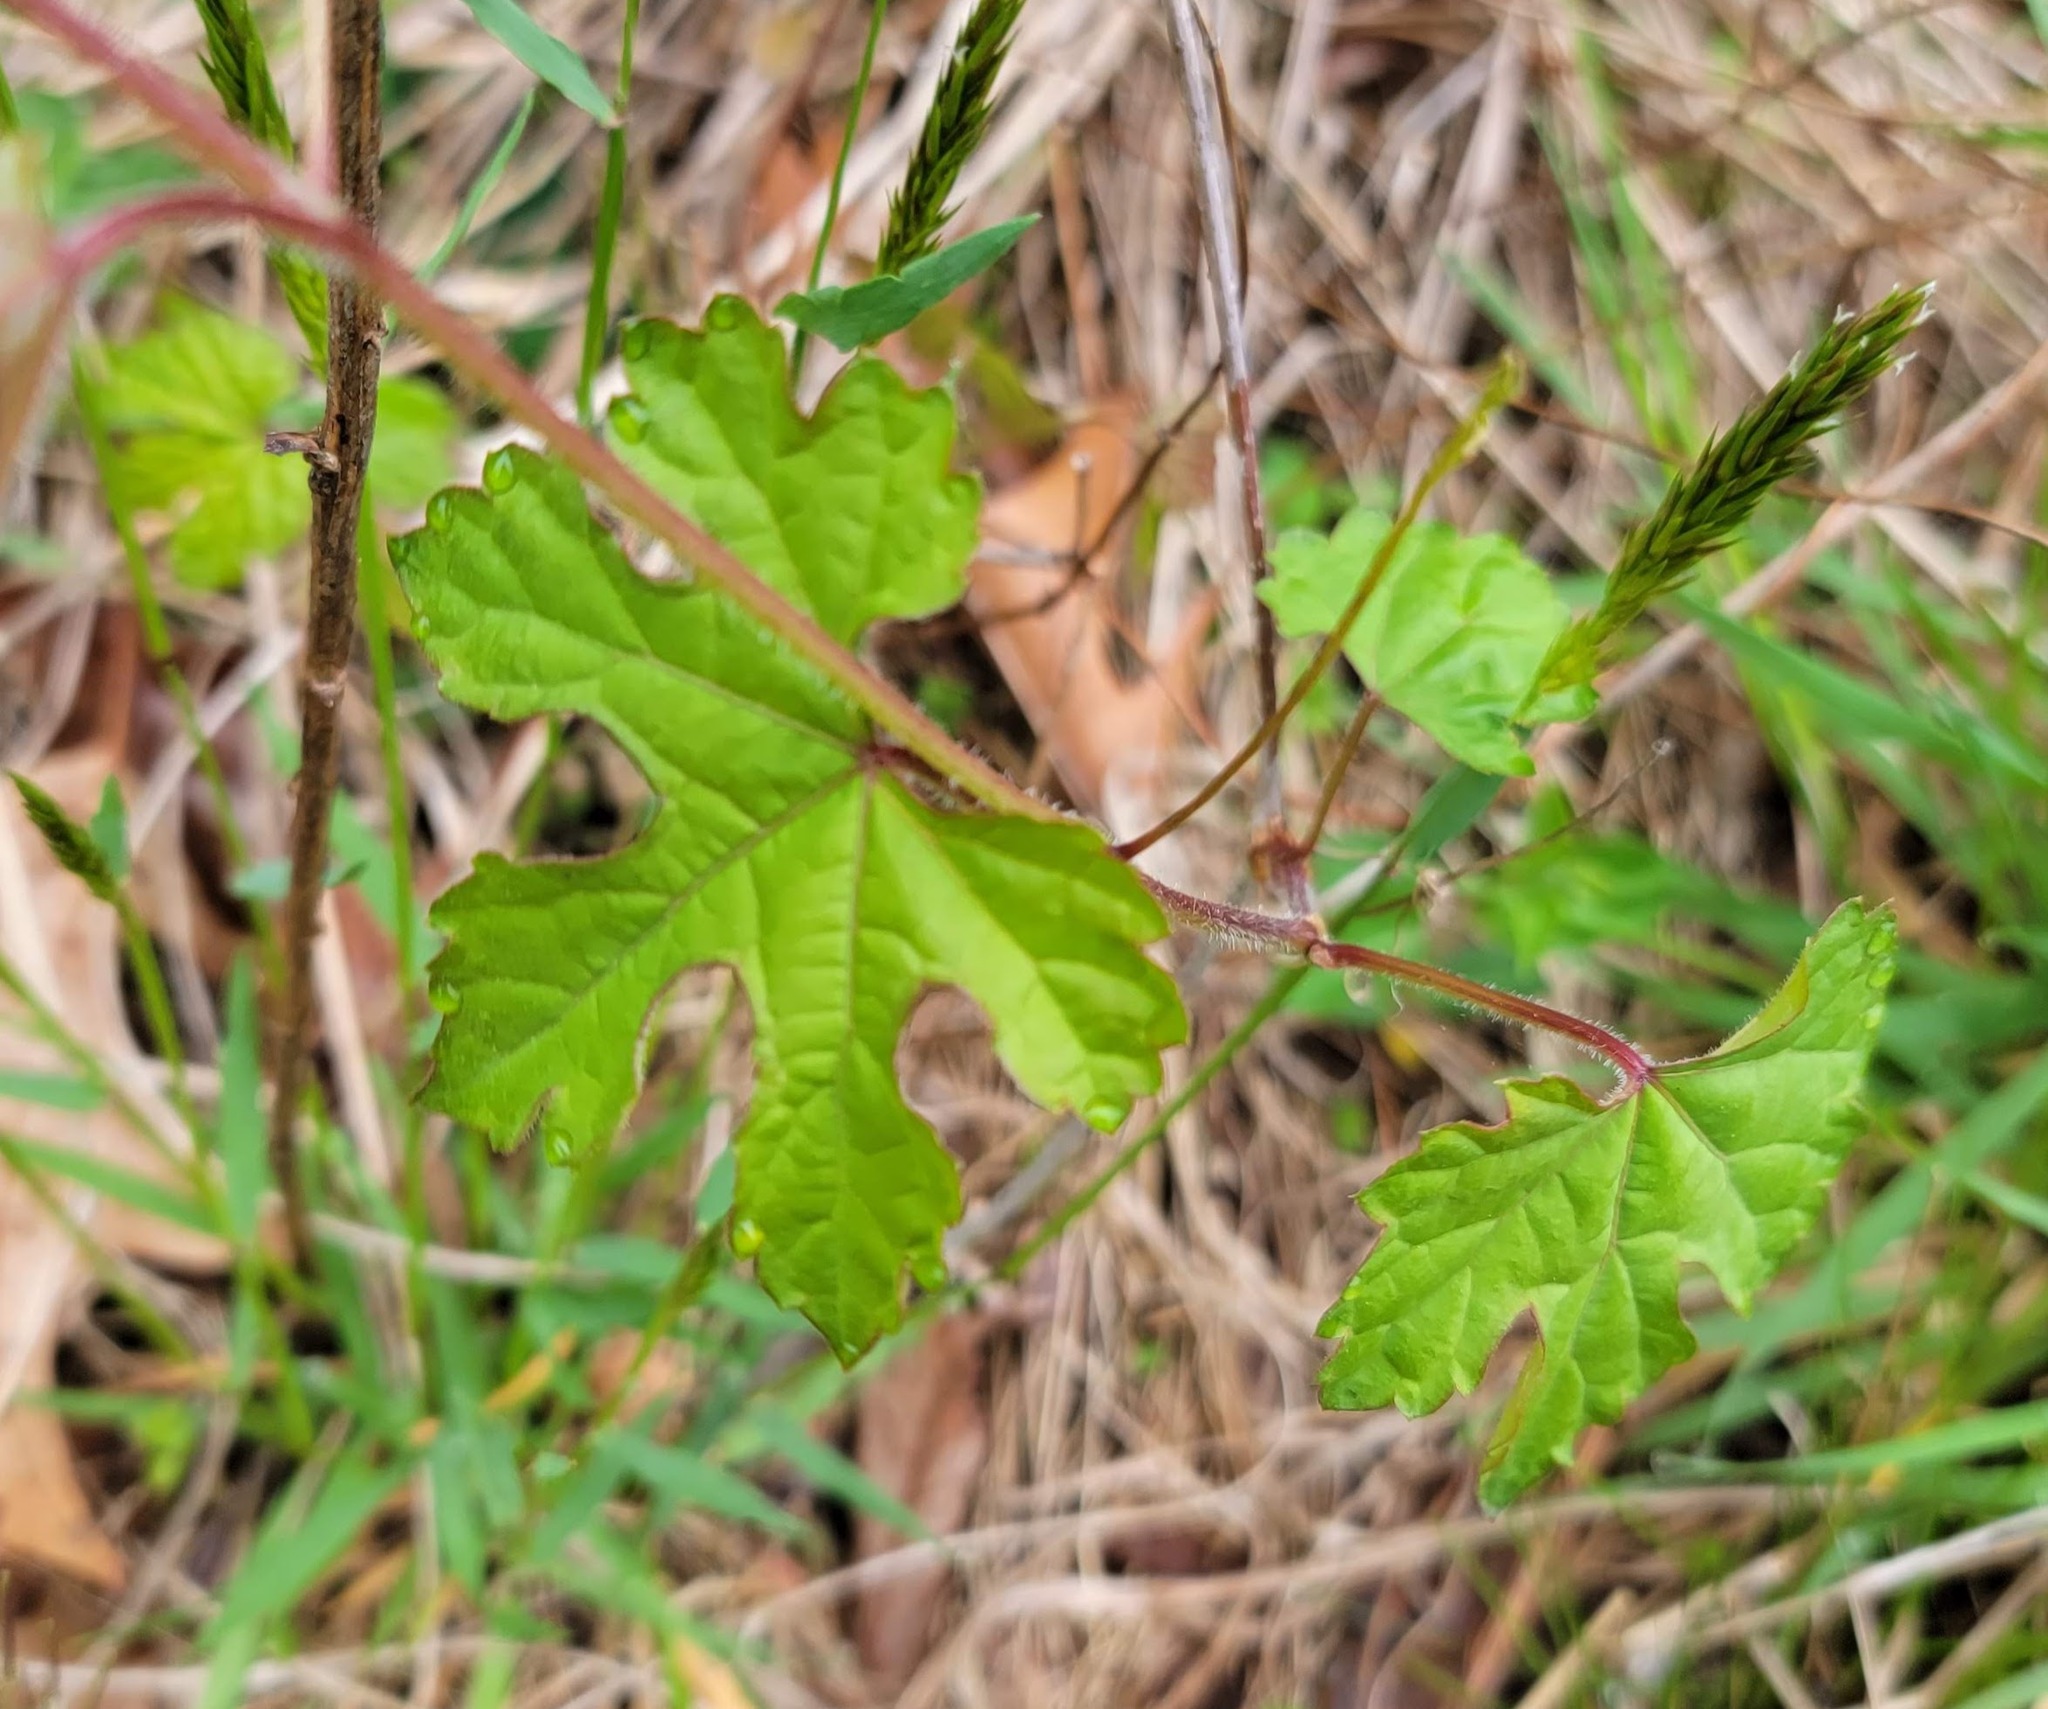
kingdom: Plantae
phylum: Tracheophyta
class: Magnoliopsida
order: Vitales
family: Vitaceae
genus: Ampelopsis
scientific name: Ampelopsis glandulosa
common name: Amur peppervine
